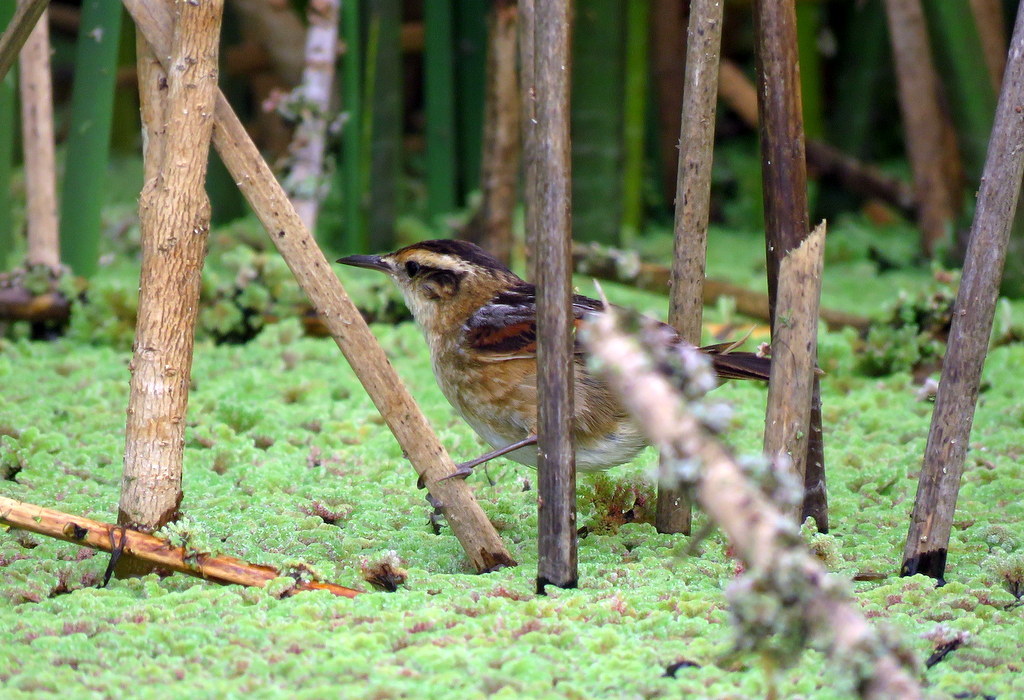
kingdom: Animalia
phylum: Chordata
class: Aves
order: Passeriformes
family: Furnariidae
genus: Phleocryptes
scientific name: Phleocryptes melanops
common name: Wren-like rushbird
